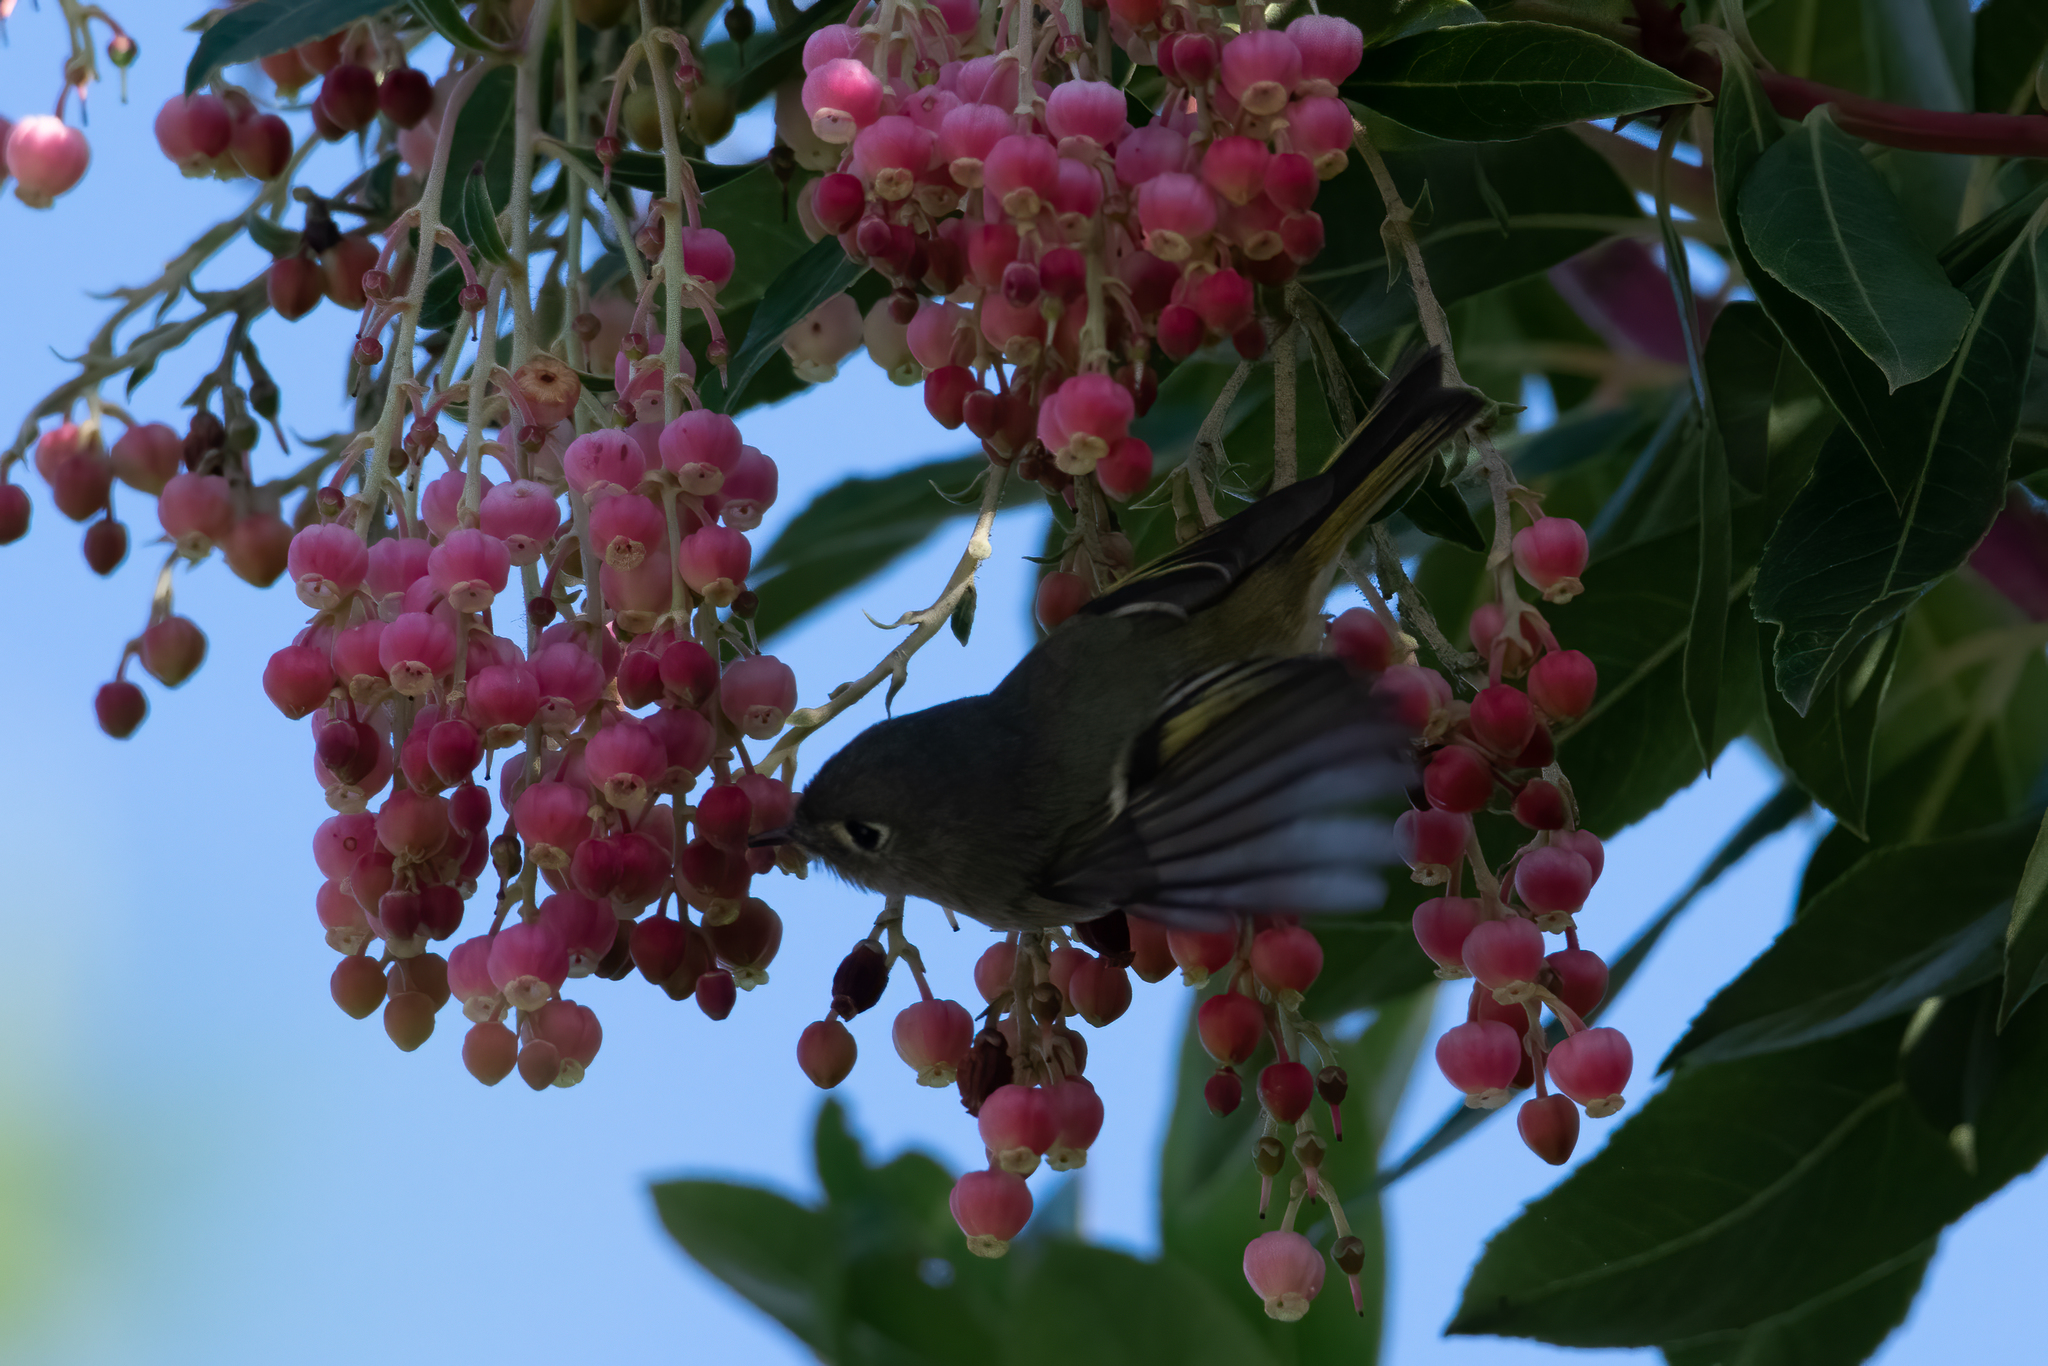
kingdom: Animalia
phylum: Chordata
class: Aves
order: Passeriformes
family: Regulidae
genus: Regulus
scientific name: Regulus calendula
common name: Ruby-crowned kinglet
